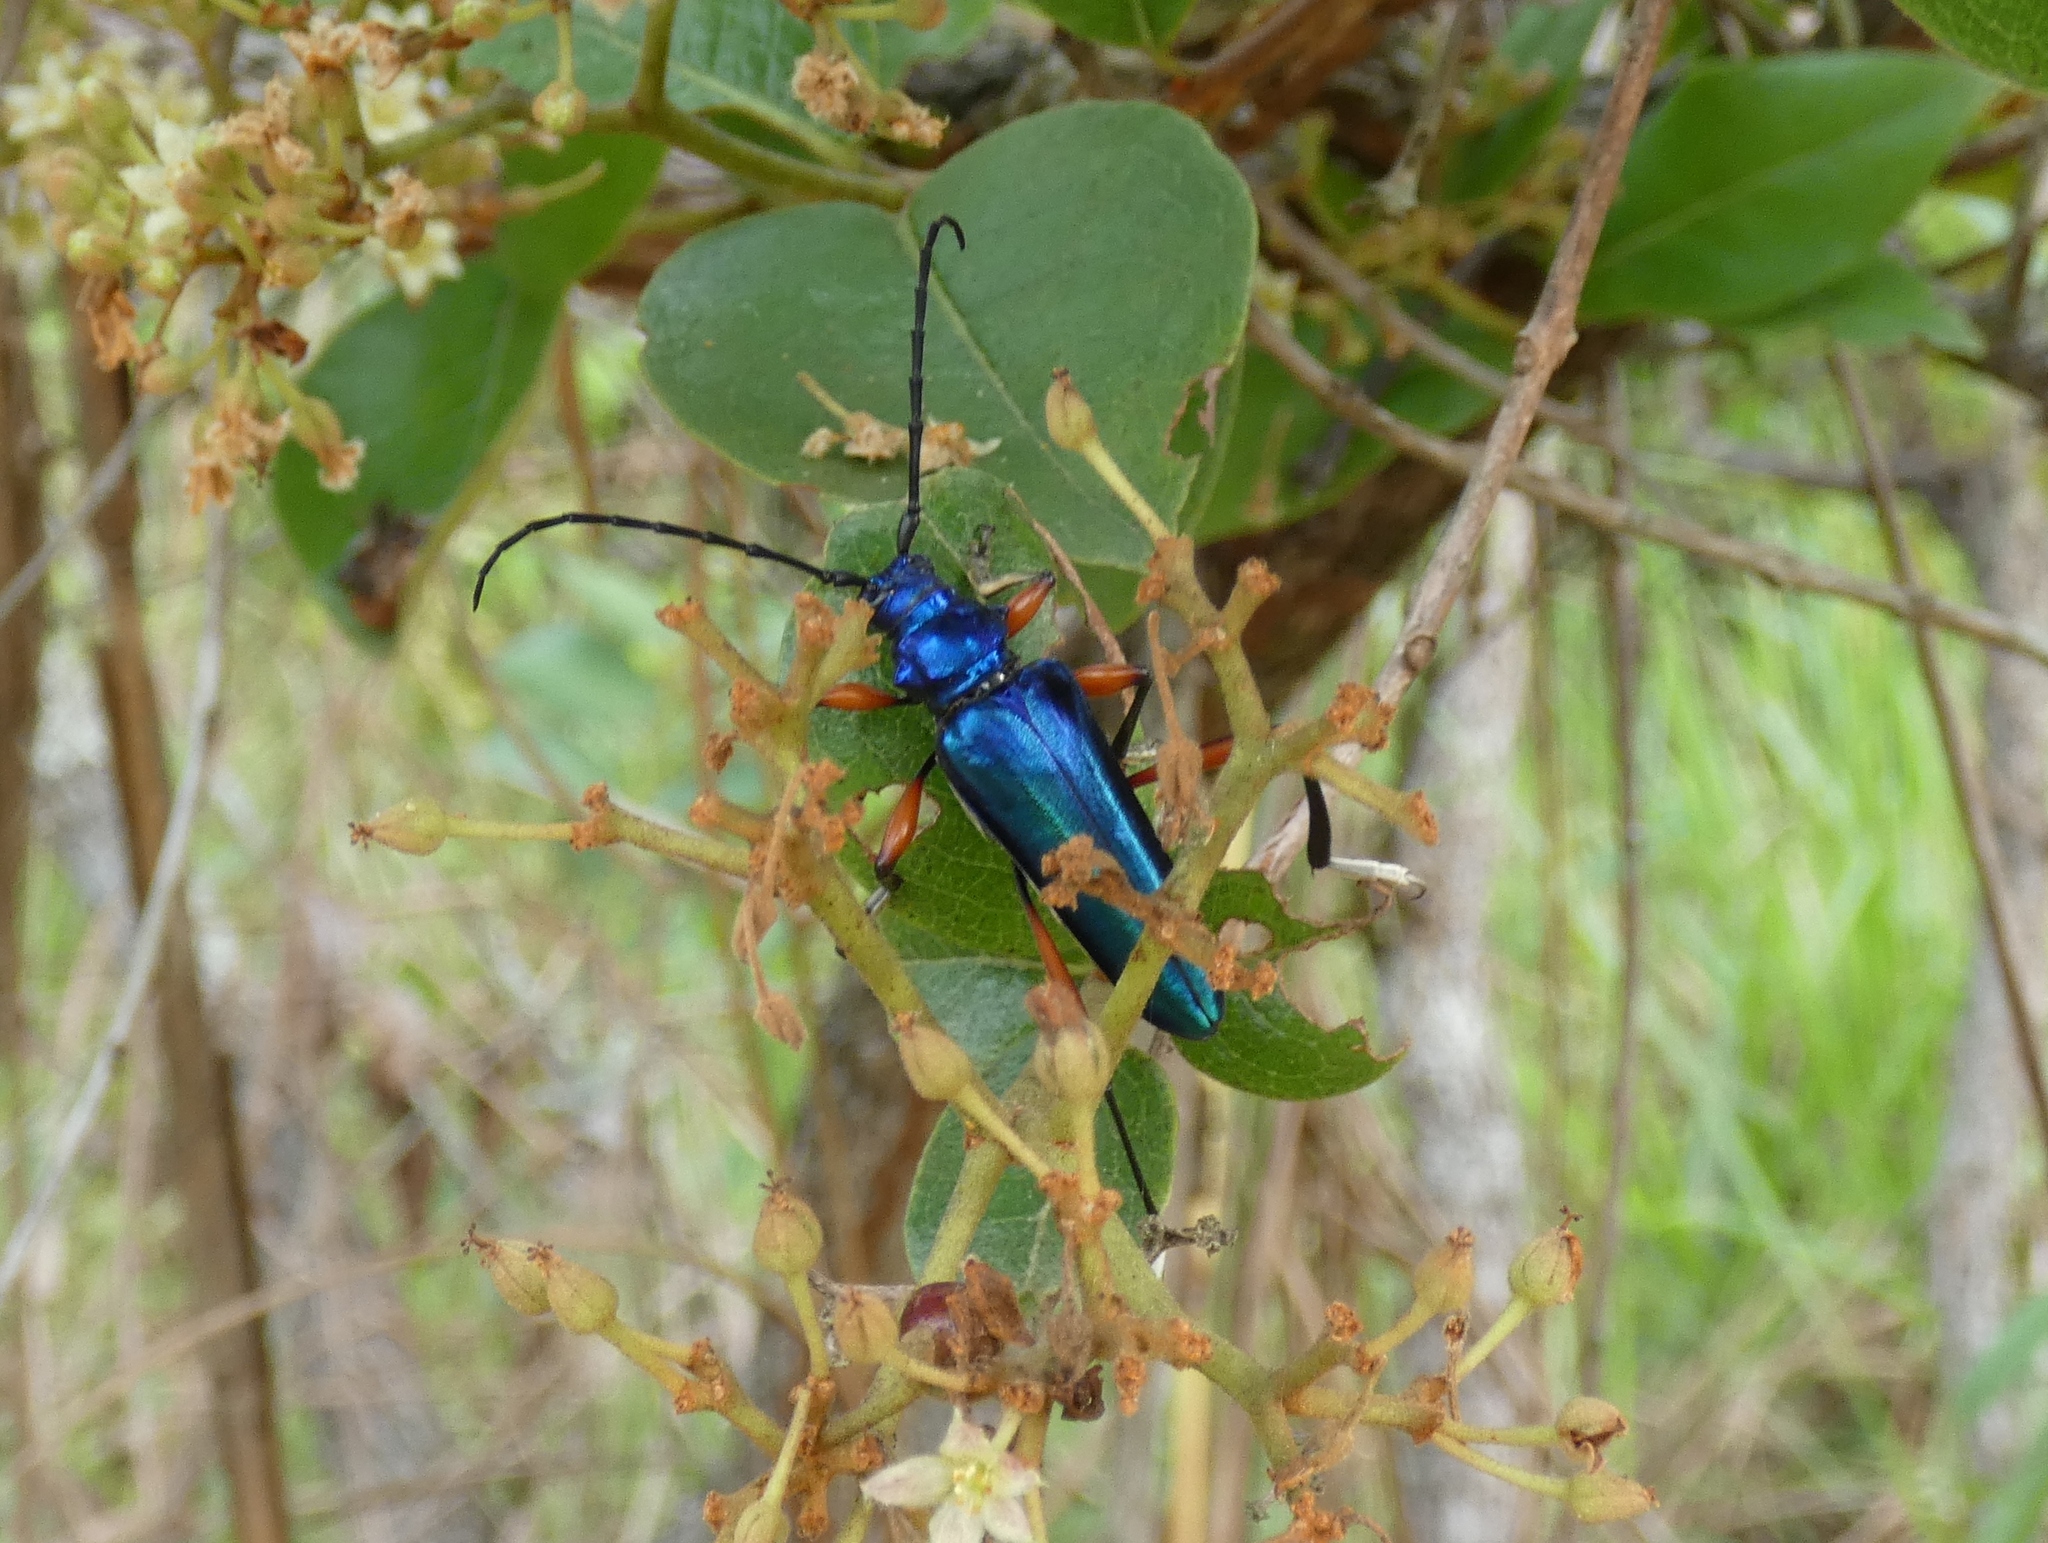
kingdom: Animalia
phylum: Arthropoda
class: Insecta
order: Coleoptera
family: Cerambycidae
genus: Mecosaspis
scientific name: Mecosaspis severa
